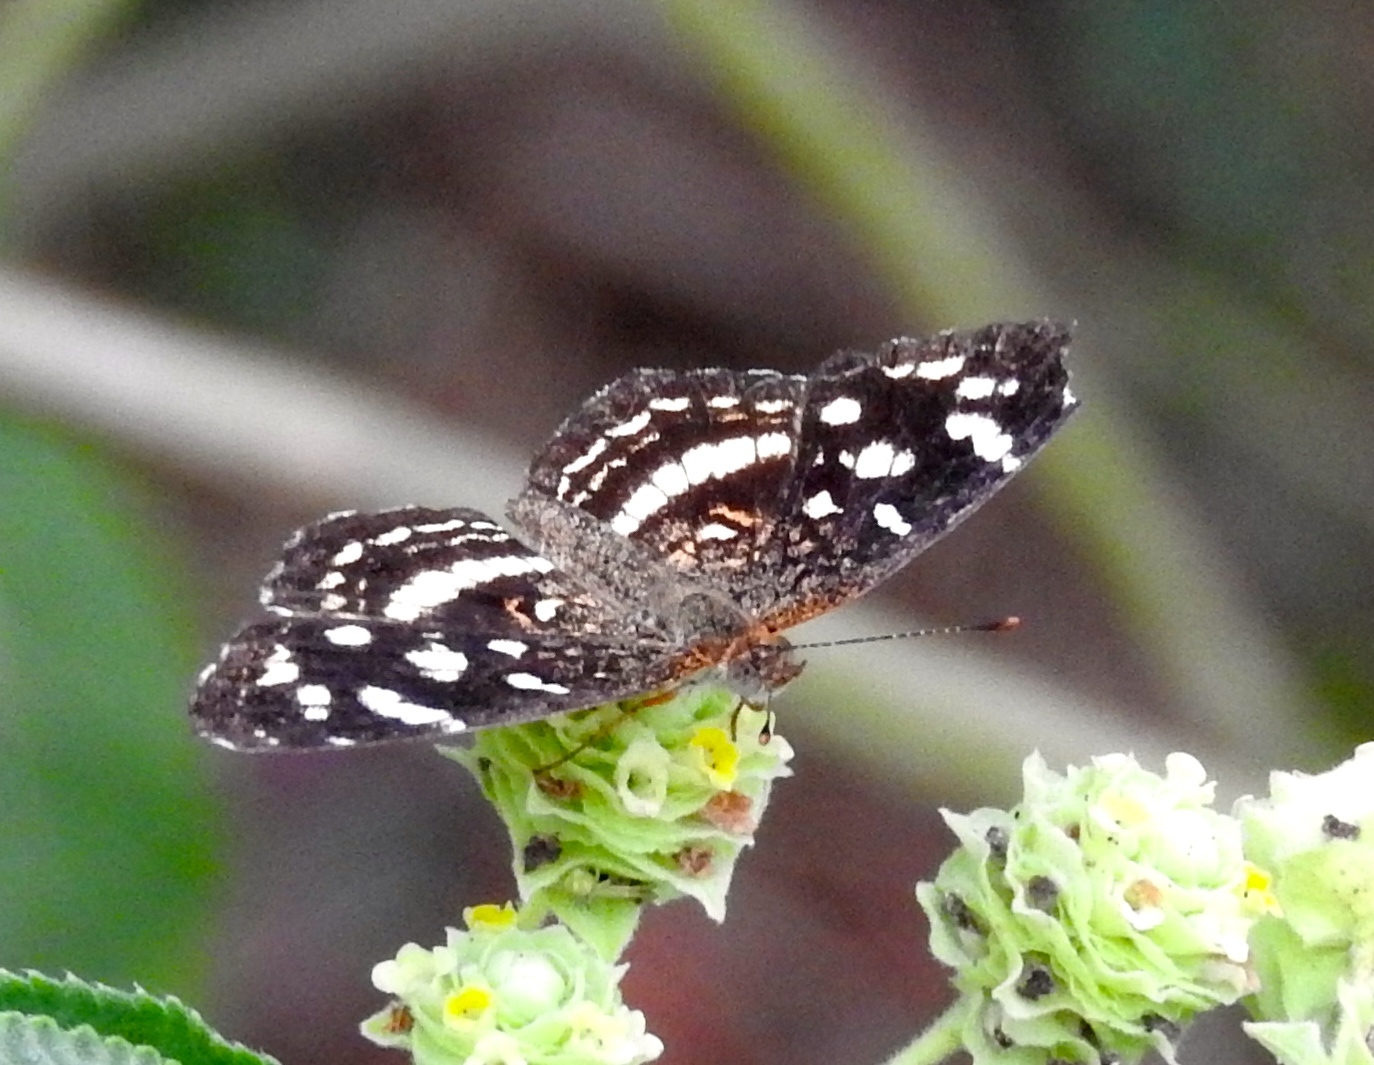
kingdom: Animalia
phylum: Arthropoda
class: Insecta
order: Lepidoptera
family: Nymphalidae
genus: Anthanassa
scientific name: Anthanassa tulcis
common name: Pale-banded crescent
